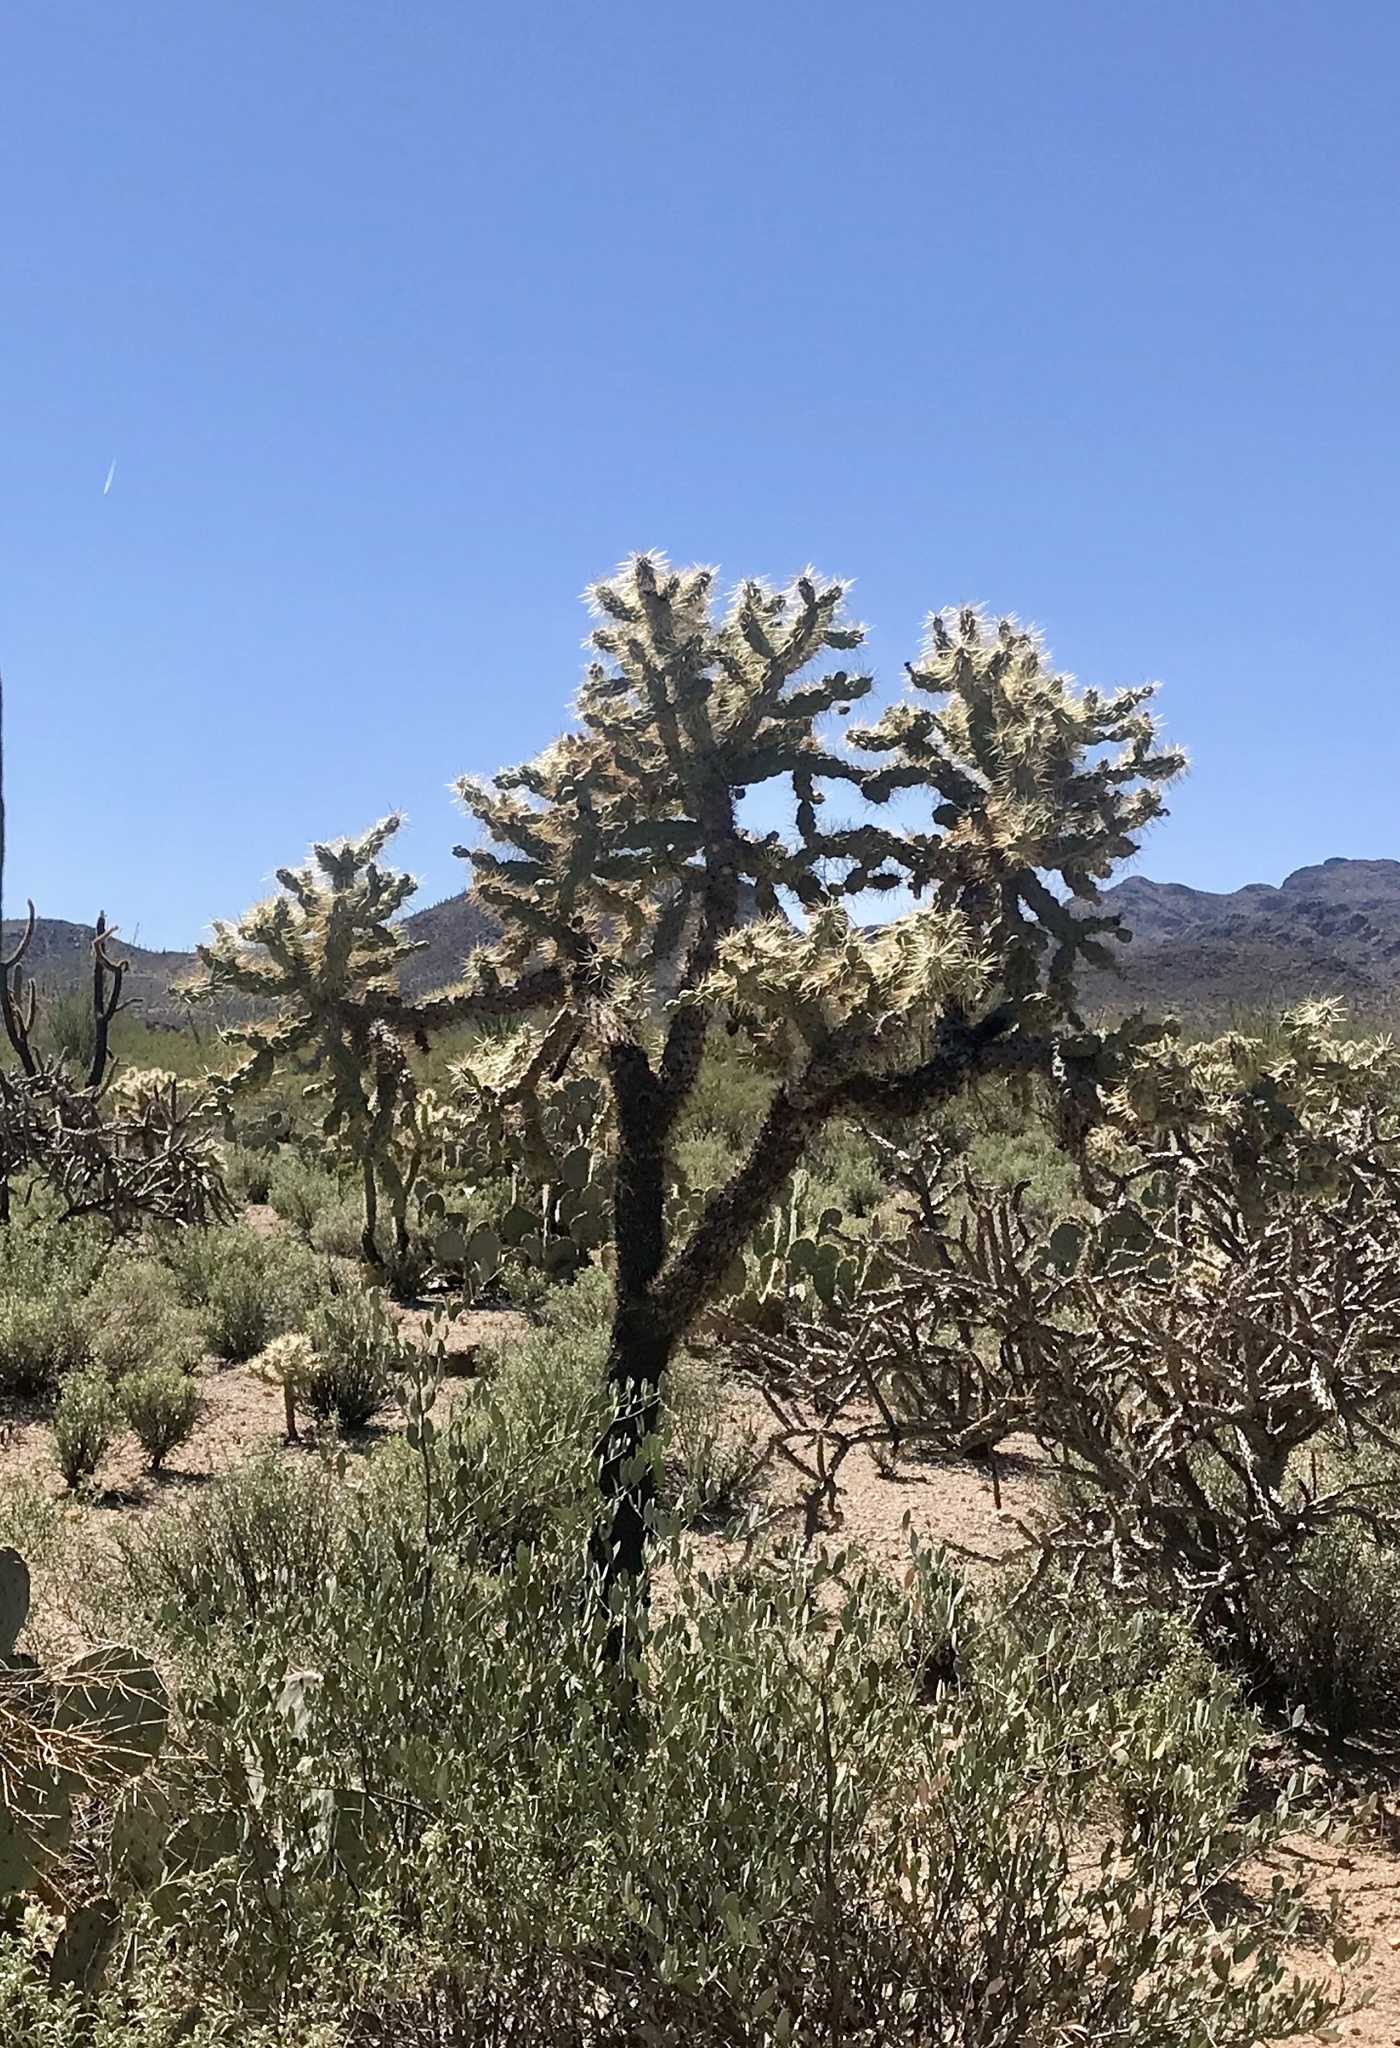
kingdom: Plantae
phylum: Tracheophyta
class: Magnoliopsida
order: Caryophyllales
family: Cactaceae
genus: Cylindropuntia
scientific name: Cylindropuntia fulgida
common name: Jumping cholla
